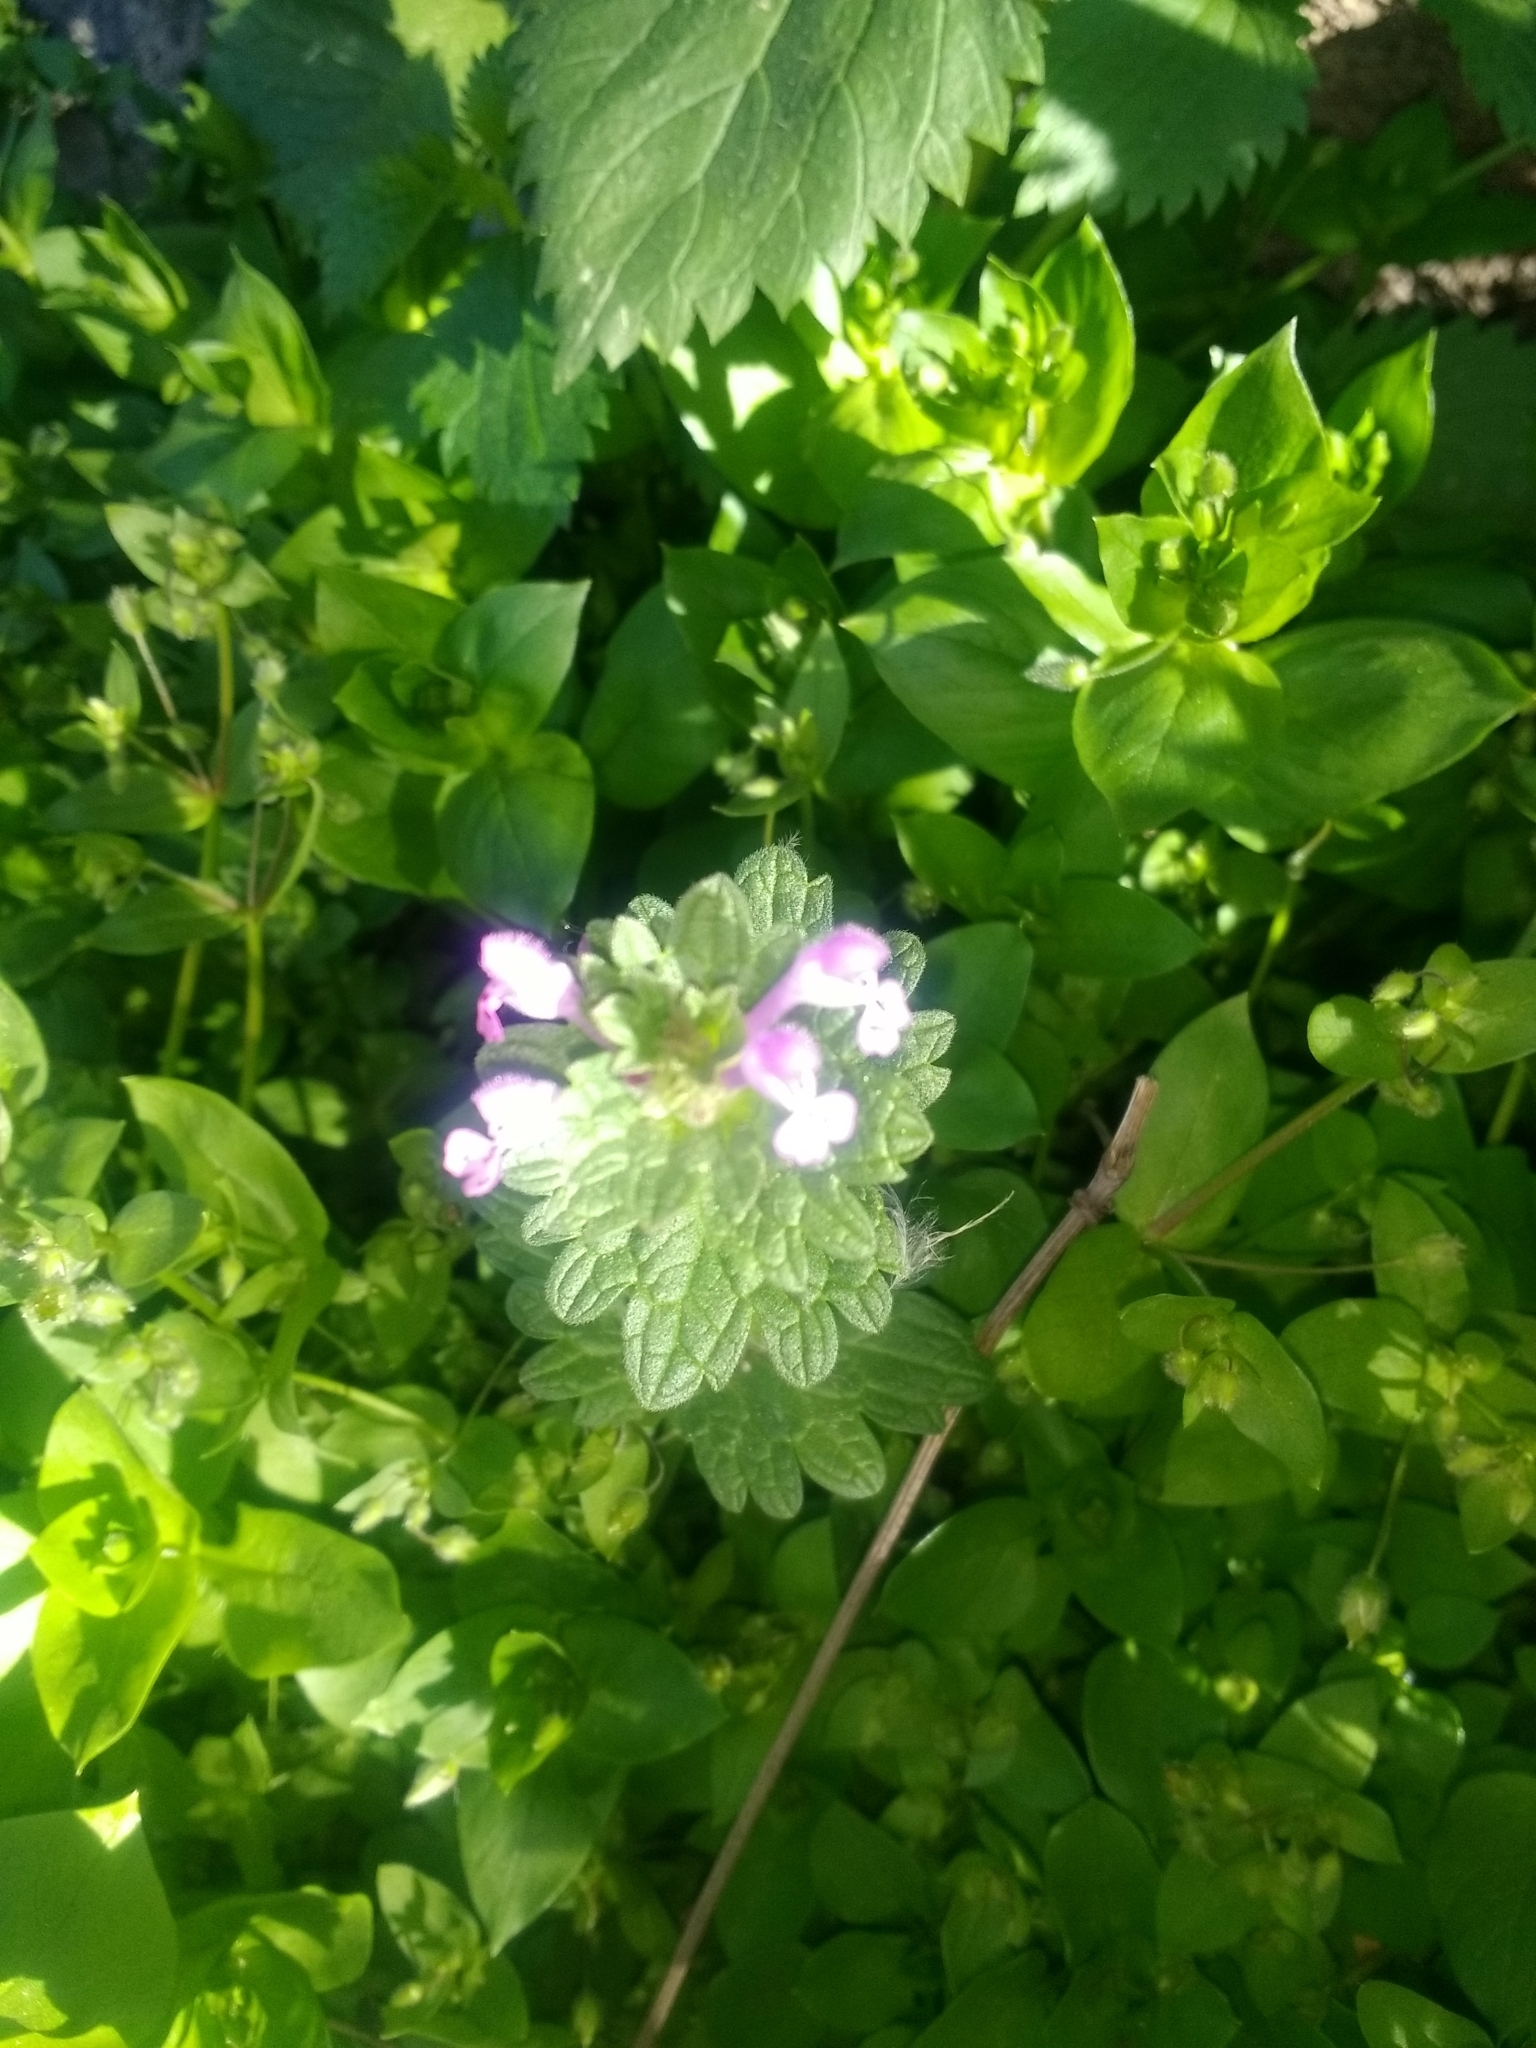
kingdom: Plantae
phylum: Tracheophyta
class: Magnoliopsida
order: Lamiales
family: Lamiaceae
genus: Lamium
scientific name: Lamium purpureum
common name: Red dead-nettle
